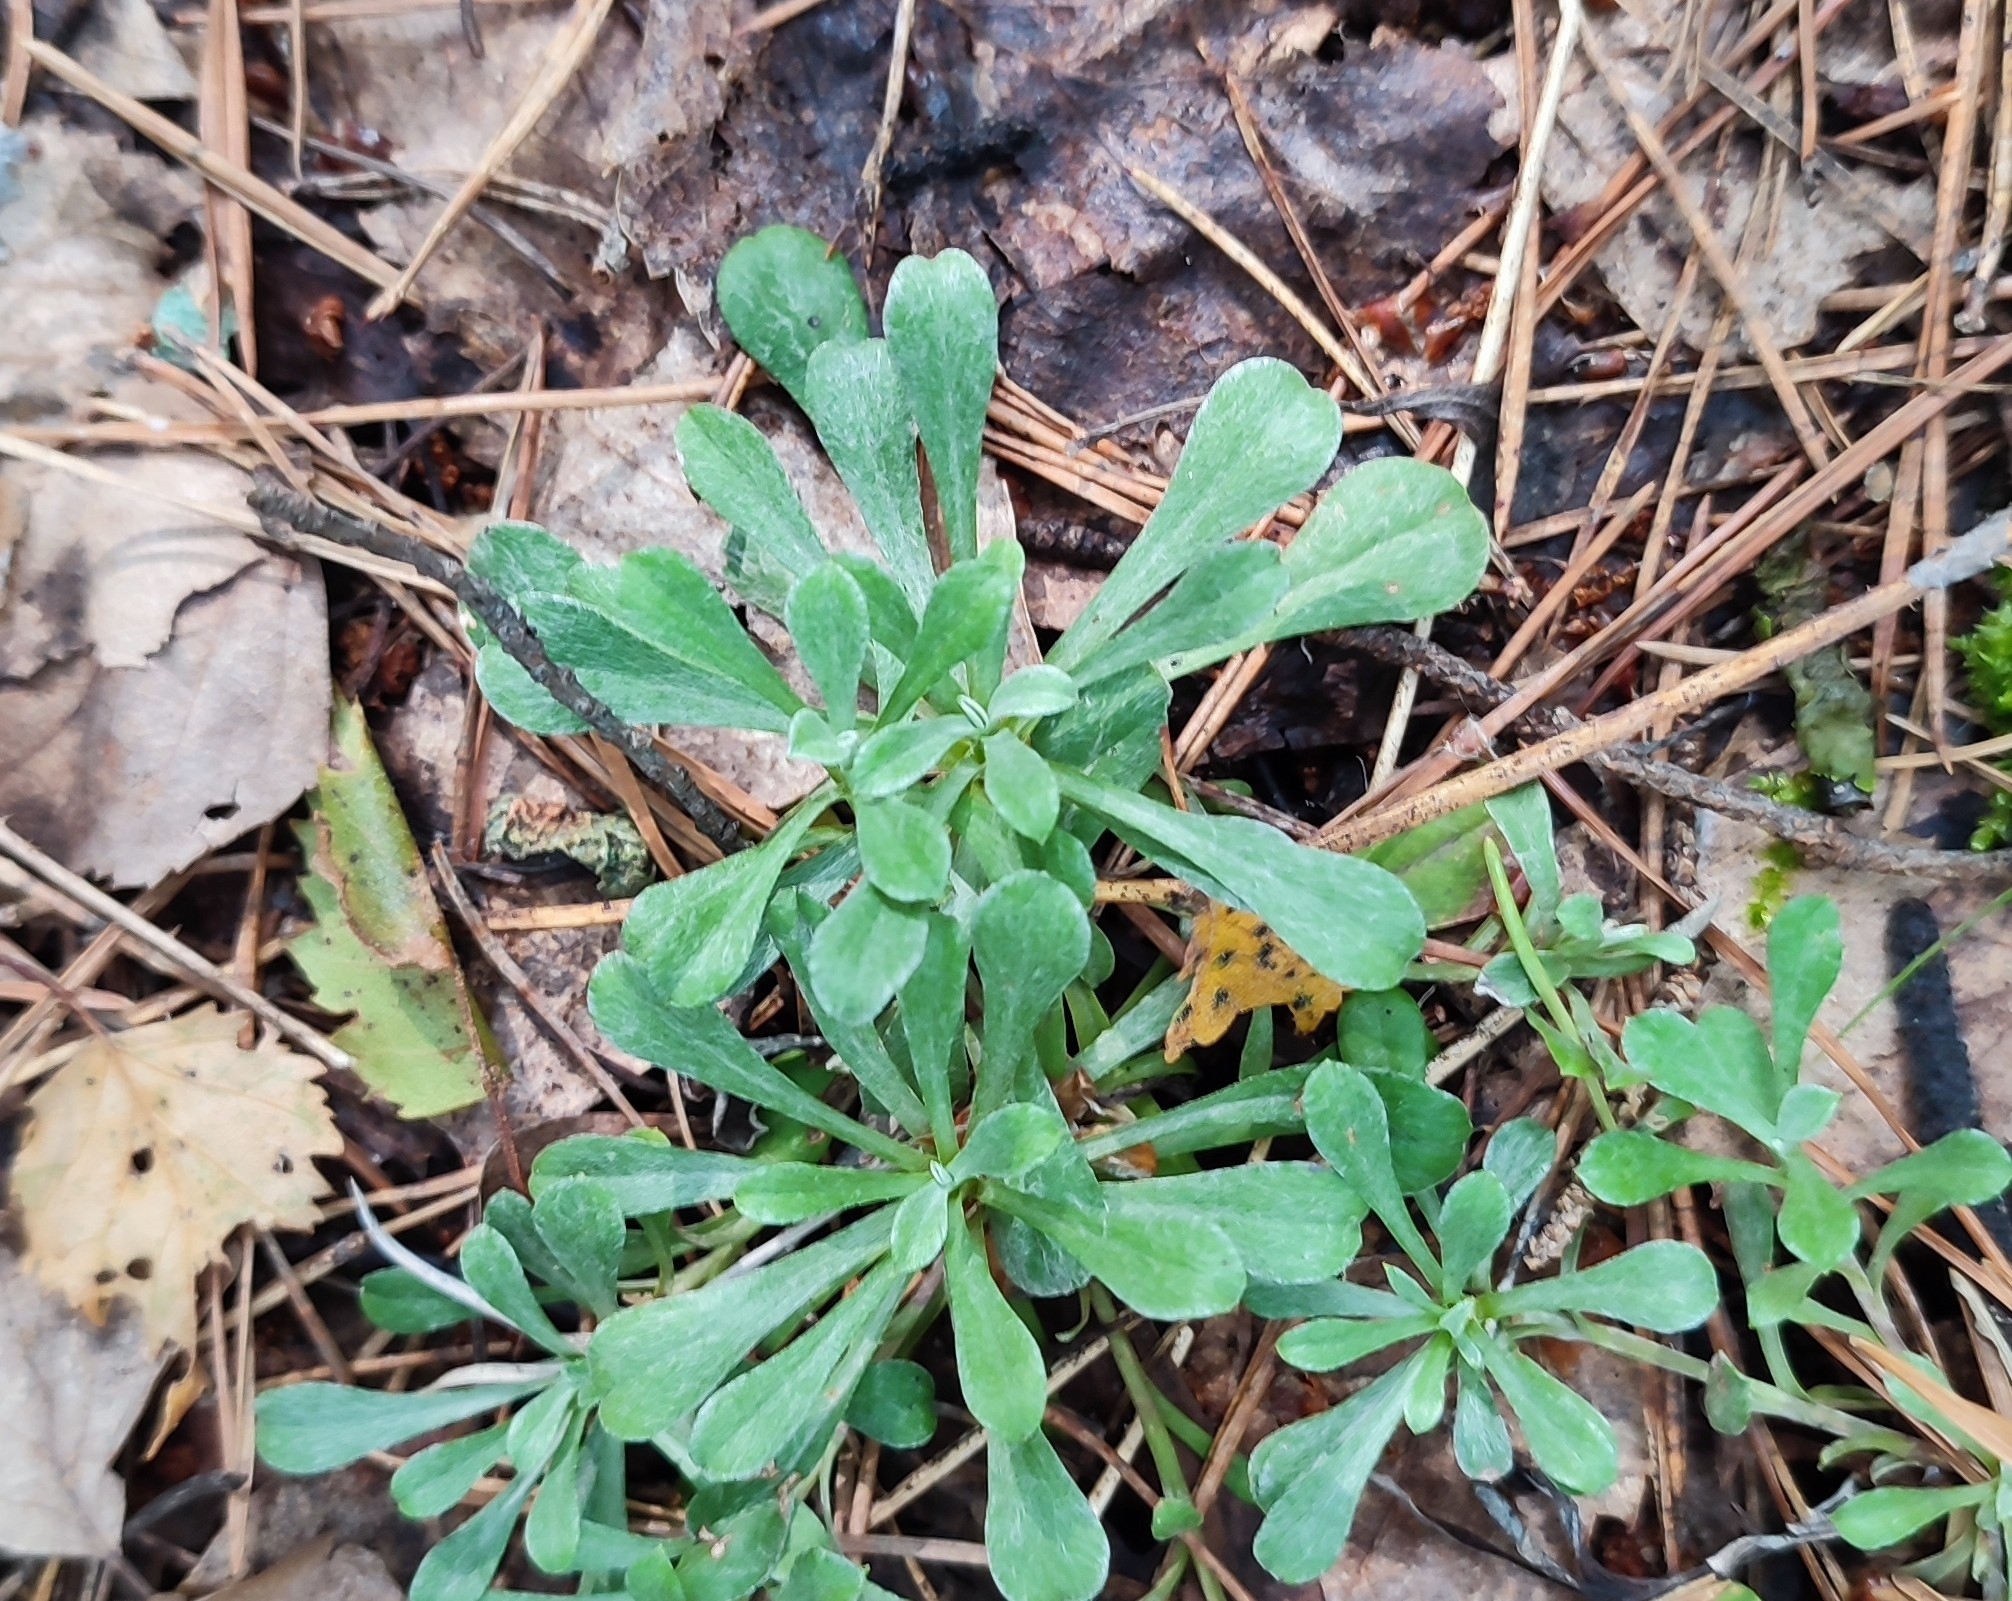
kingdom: Plantae
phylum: Tracheophyta
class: Magnoliopsida
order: Asterales
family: Asteraceae
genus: Antennaria
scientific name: Antennaria dioica
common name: Mountain everlasting
